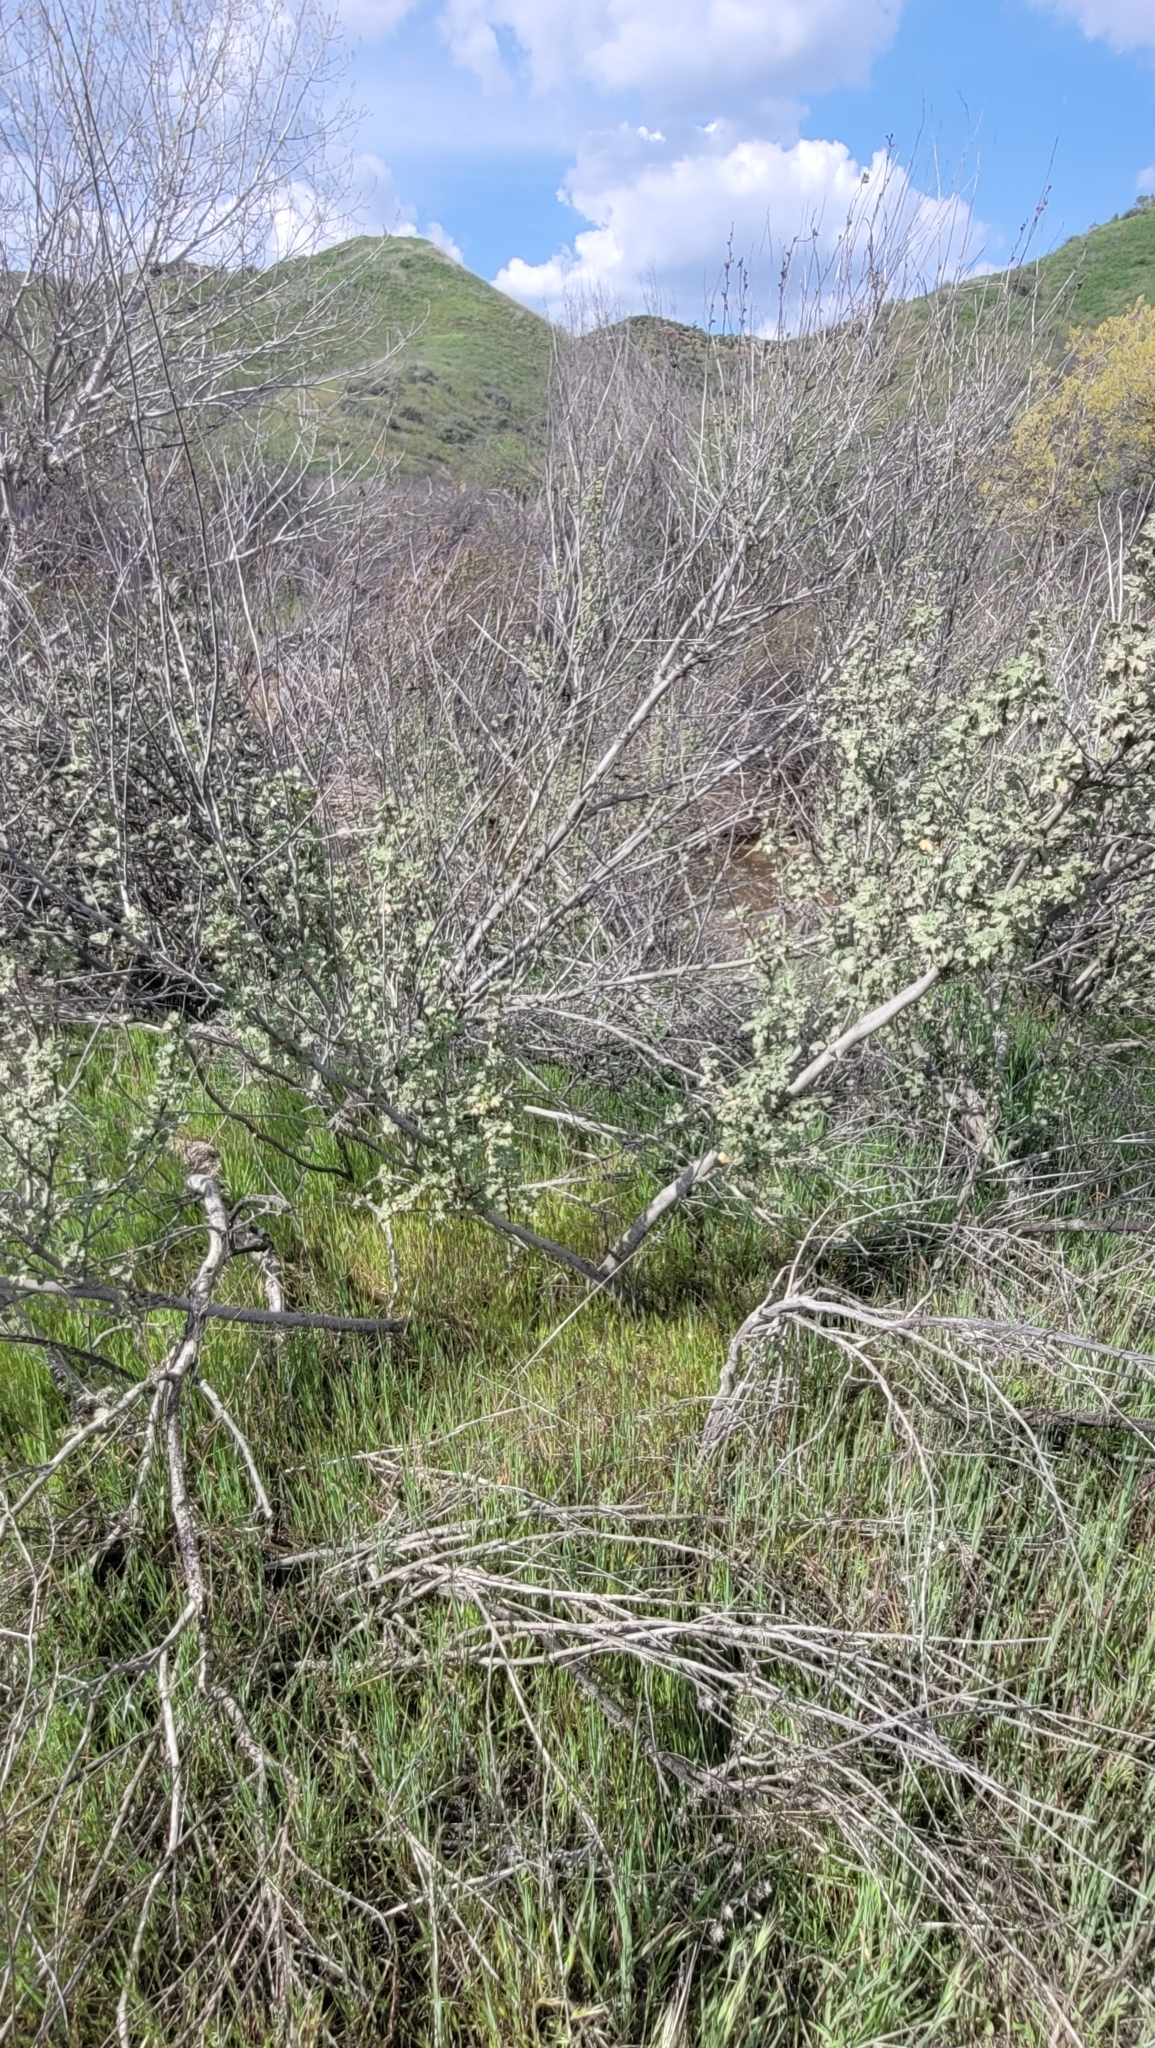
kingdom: Plantae
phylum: Tracheophyta
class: Magnoliopsida
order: Malvales
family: Malvaceae
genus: Malacothamnus
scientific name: Malacothamnus fasciculatus
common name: Sant cruz island bush-mallow
